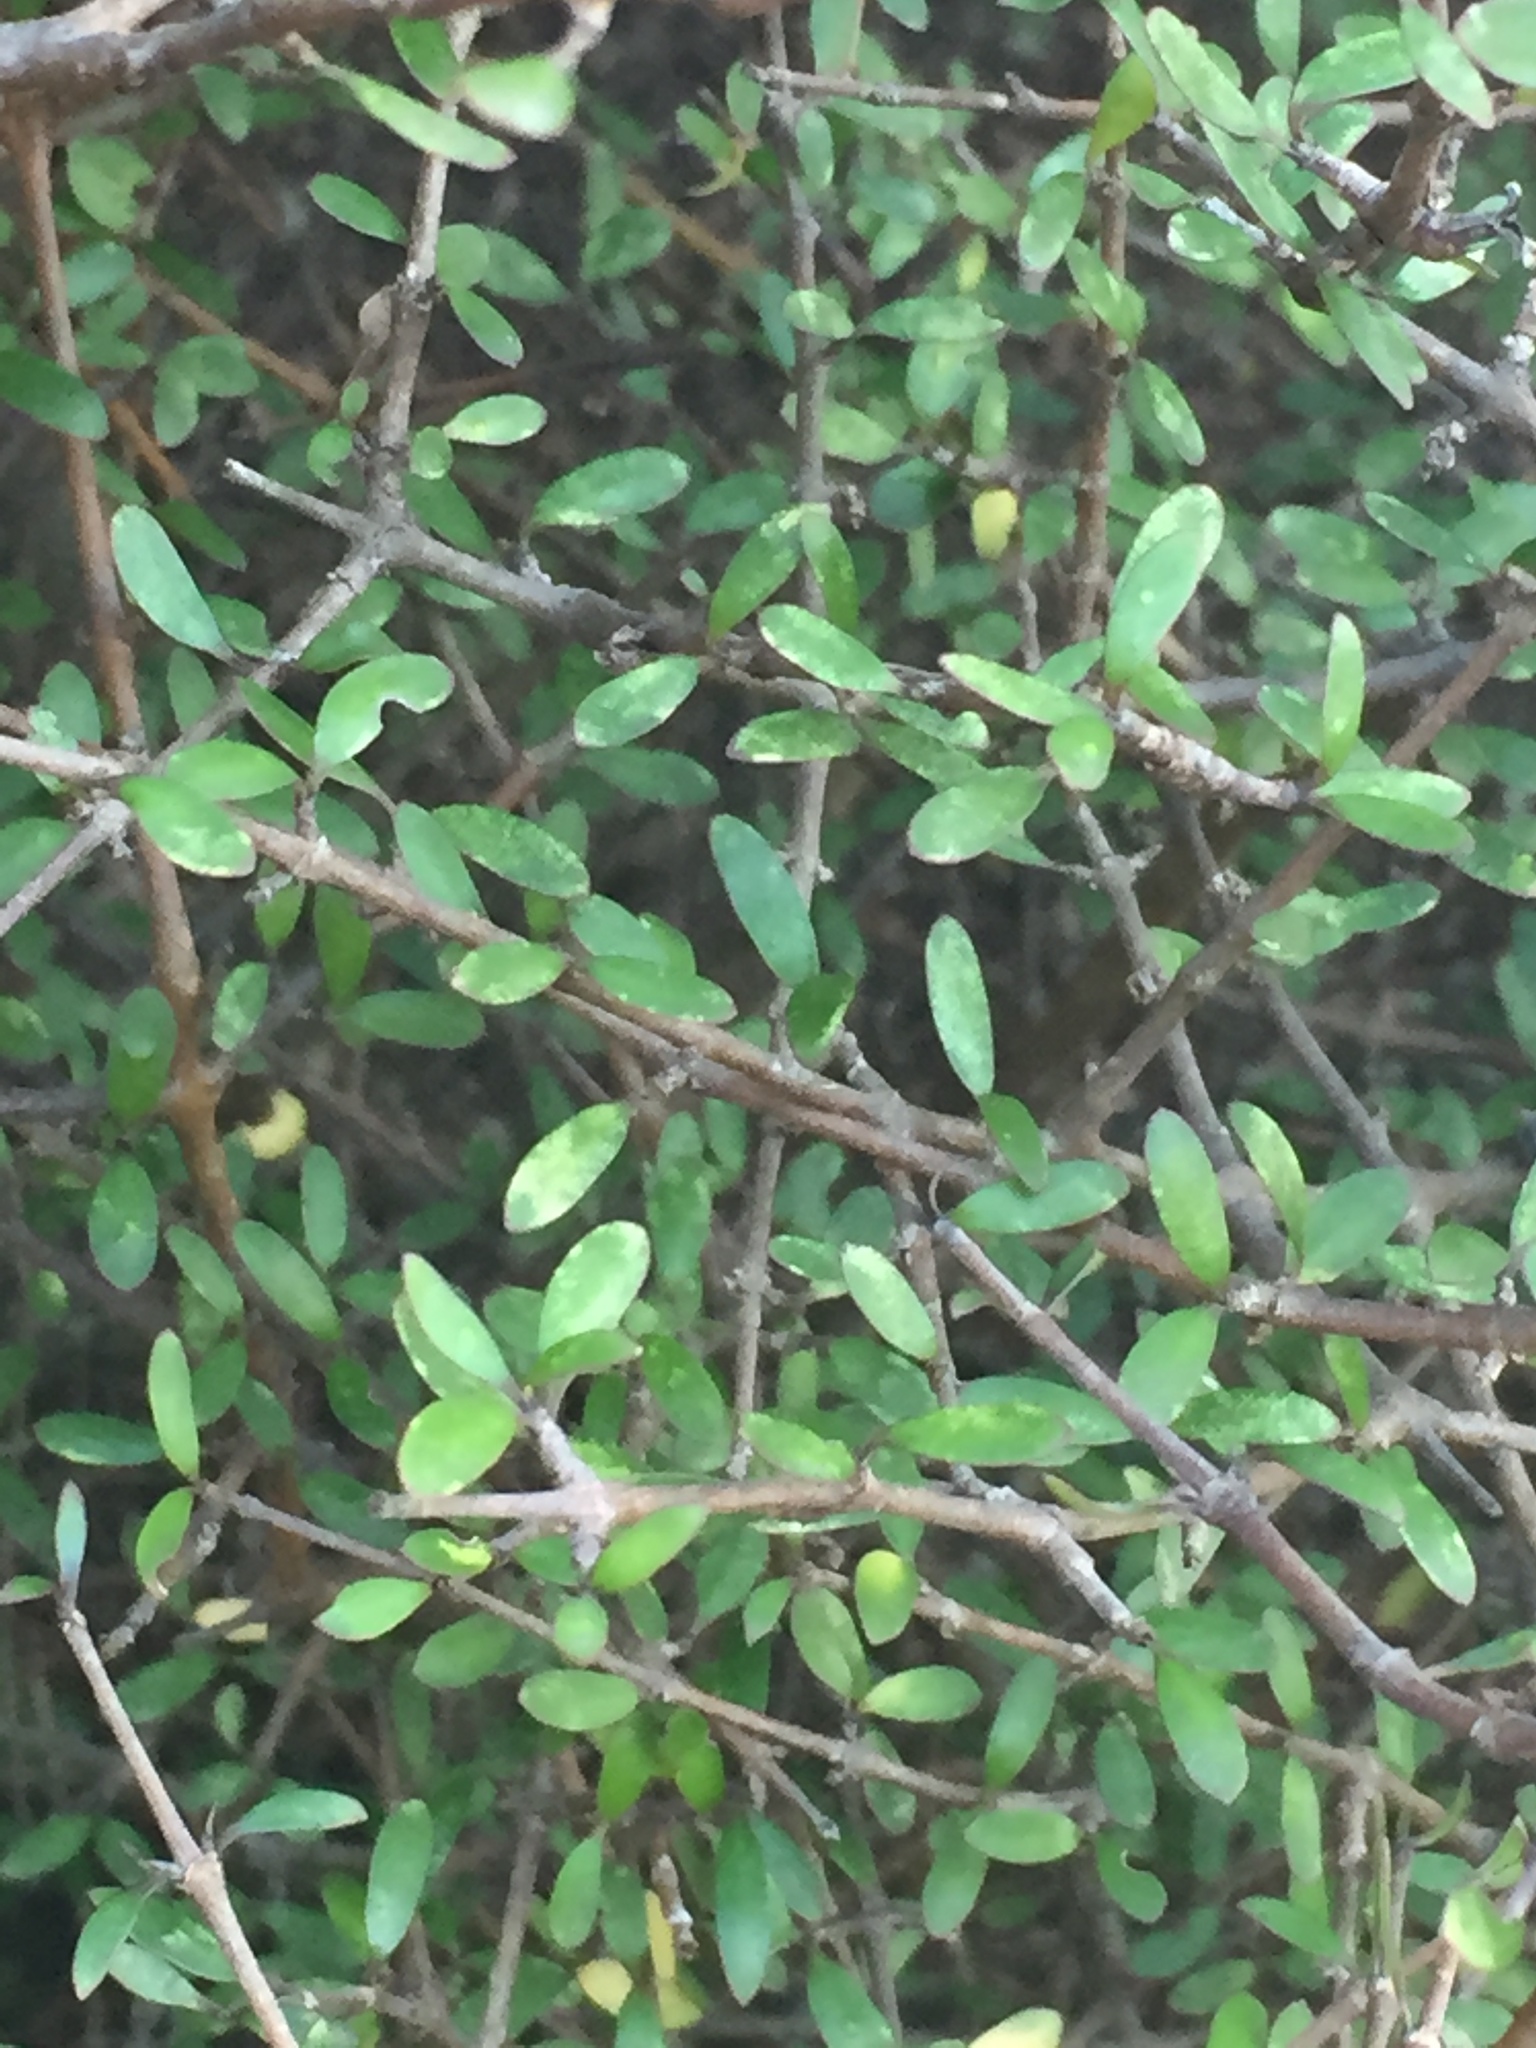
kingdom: Plantae
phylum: Tracheophyta
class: Magnoliopsida
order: Gentianales
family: Rubiaceae
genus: Coprosma
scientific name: Coprosma propinqua
